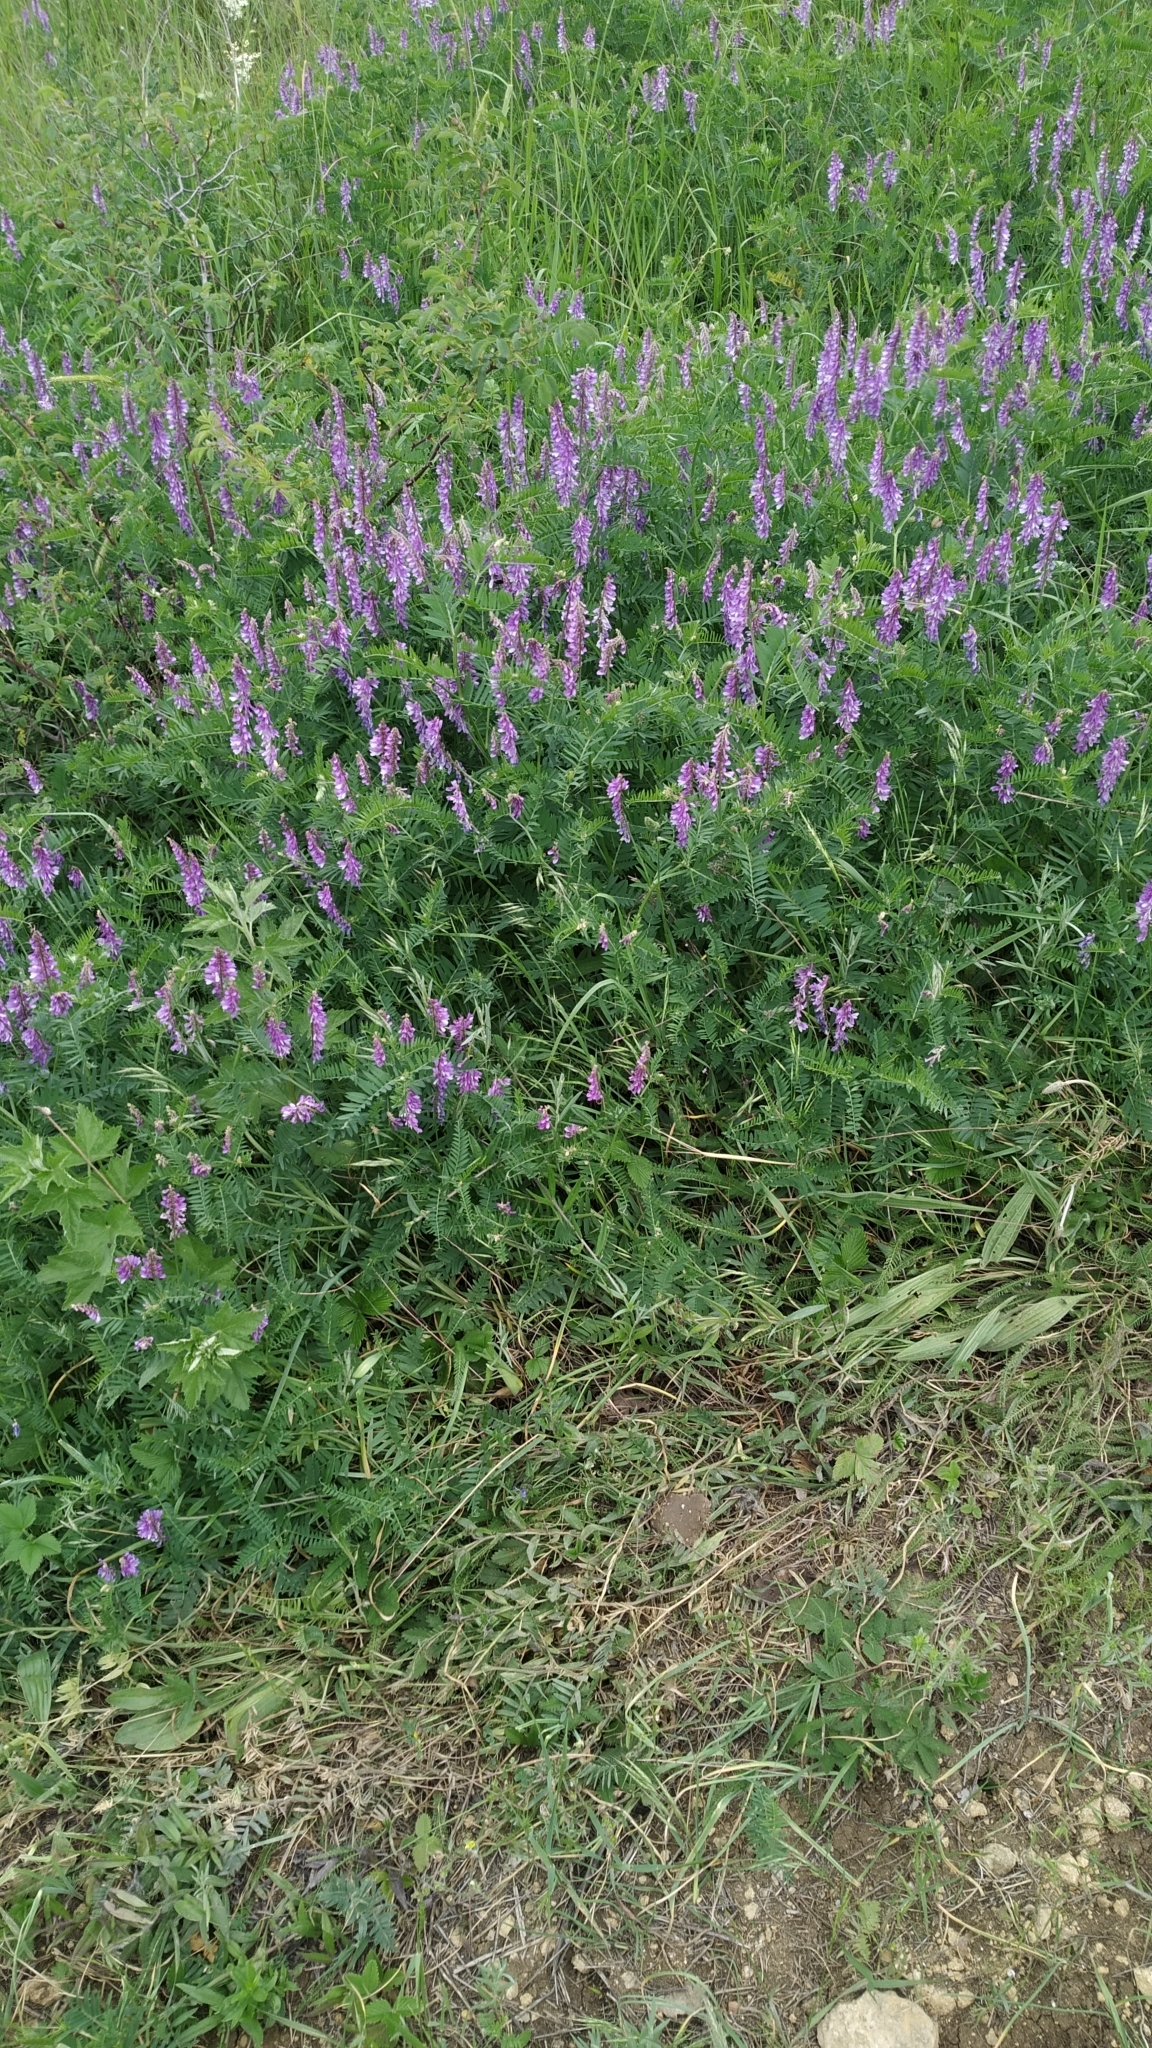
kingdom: Plantae
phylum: Tracheophyta
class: Magnoliopsida
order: Fabales
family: Fabaceae
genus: Vicia
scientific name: Vicia tenuifolia
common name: Fine-leaved vetch
